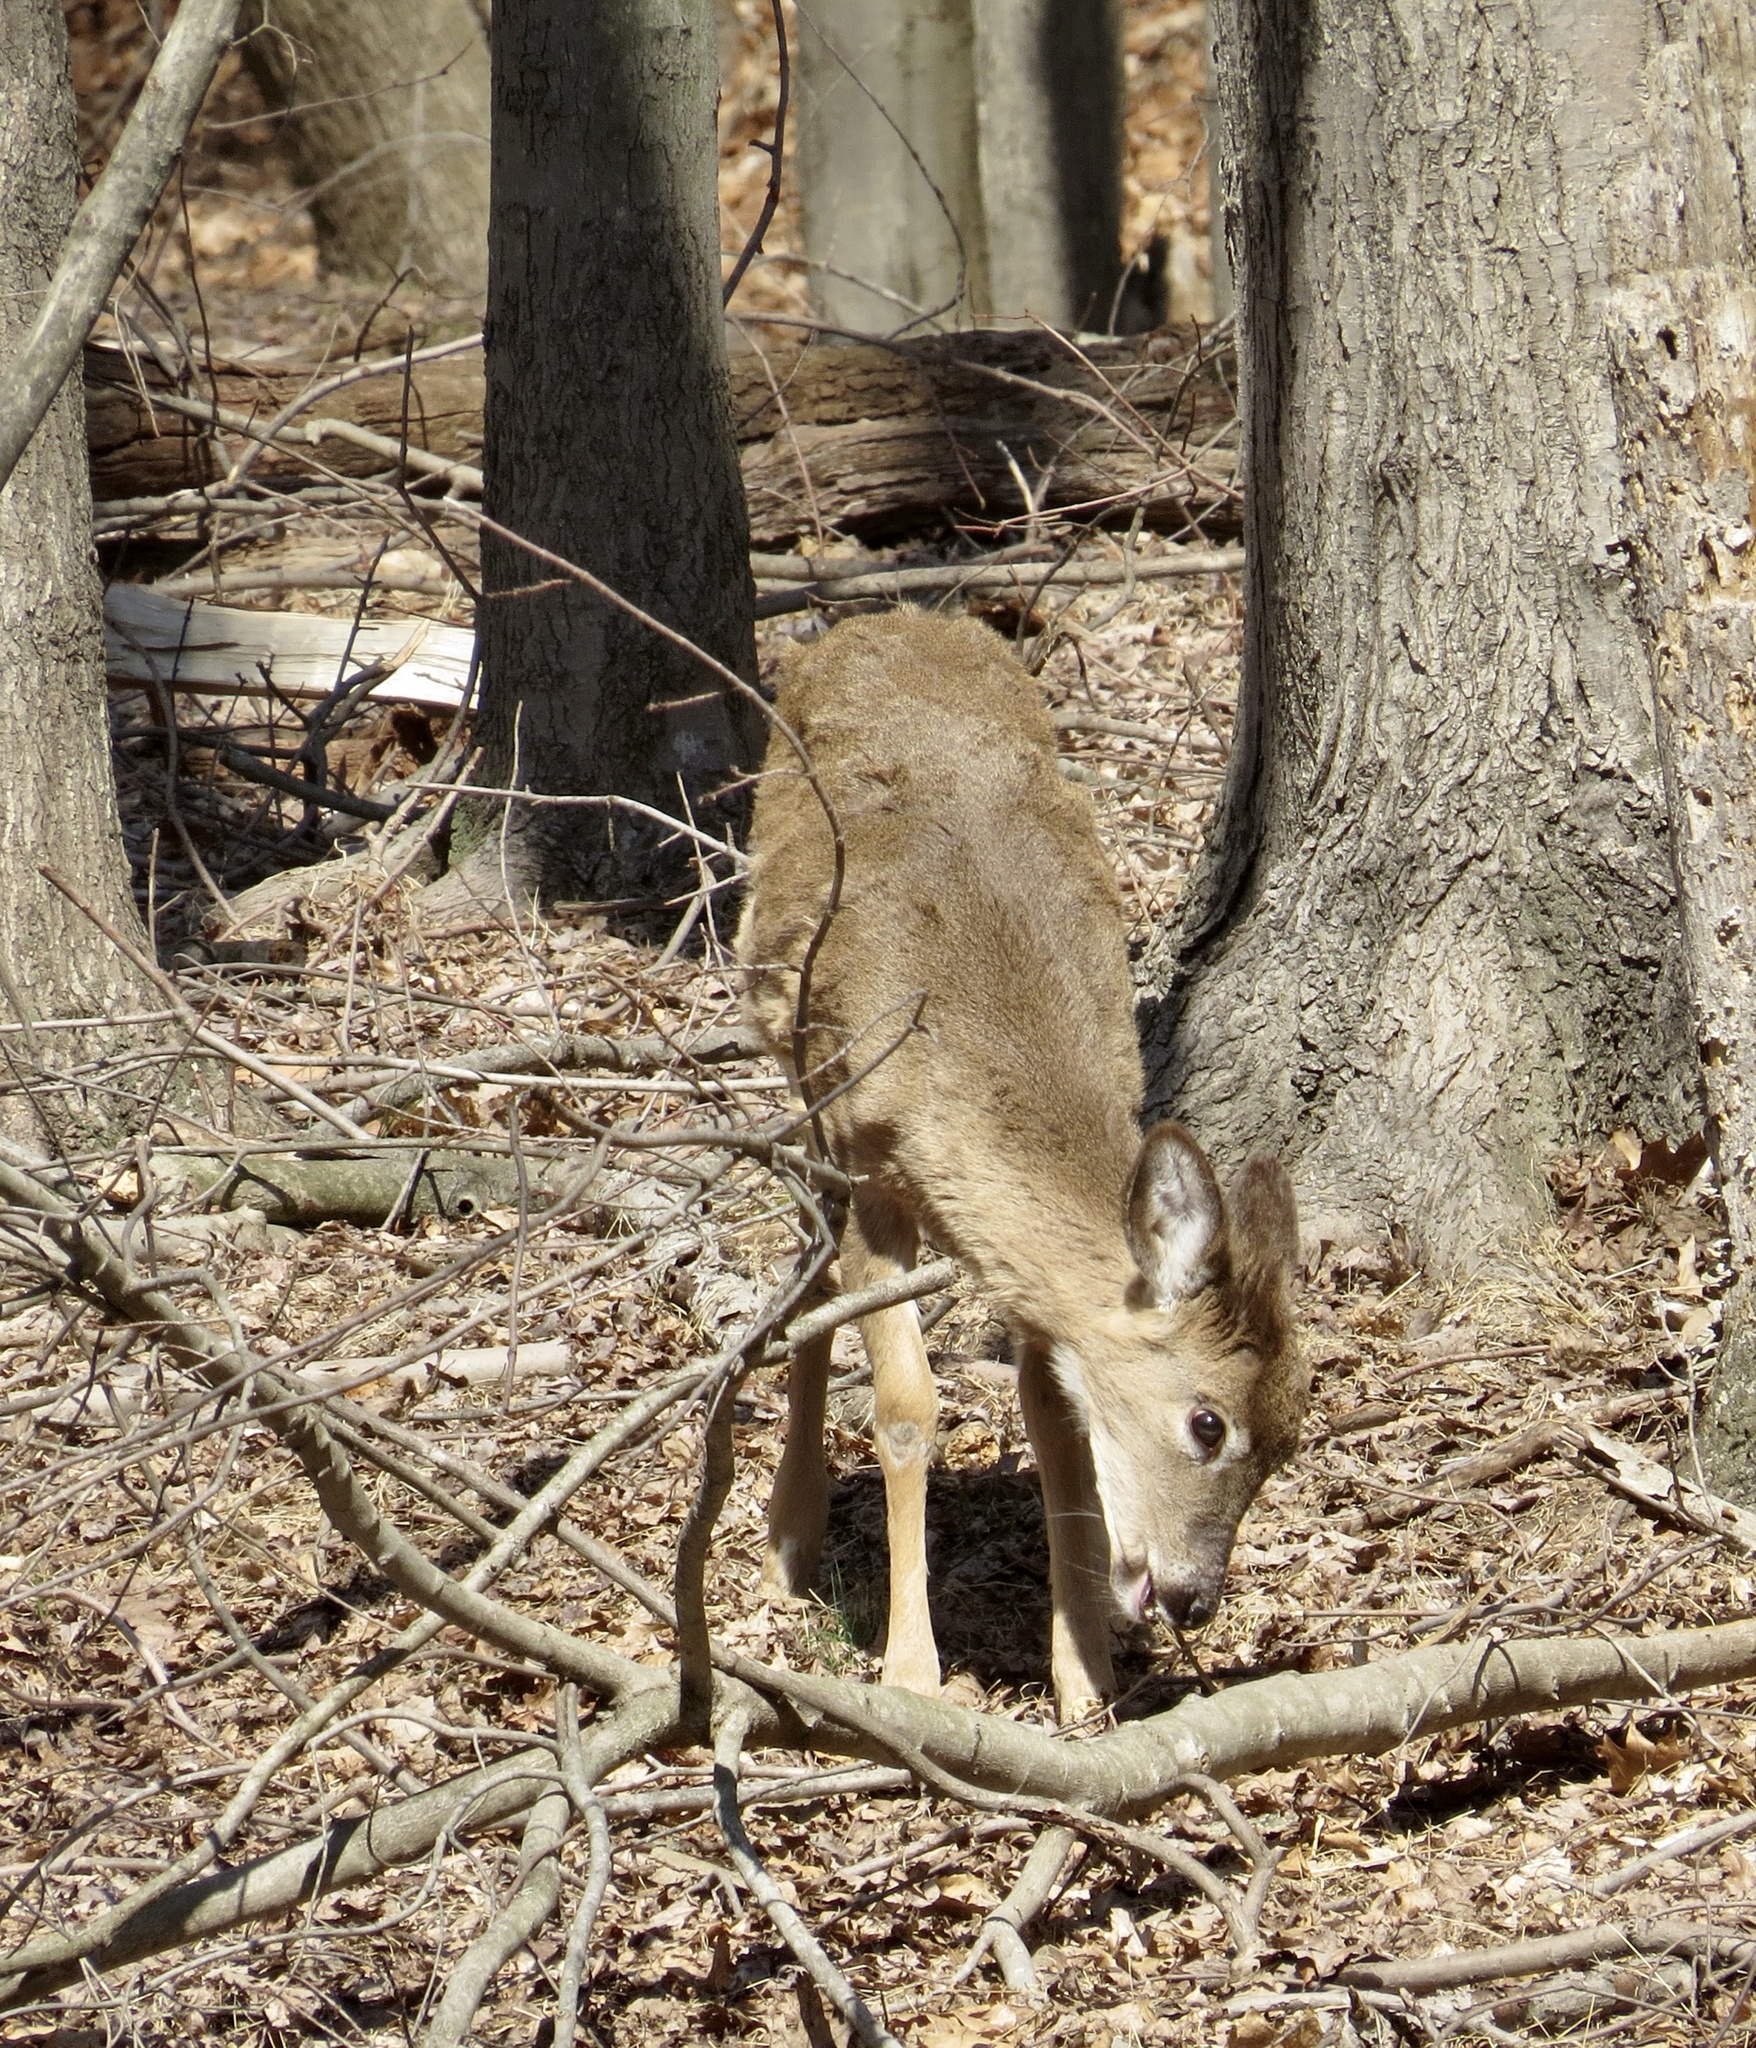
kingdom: Animalia
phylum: Chordata
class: Mammalia
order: Artiodactyla
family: Cervidae
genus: Odocoileus
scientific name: Odocoileus virginianus
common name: White-tailed deer
